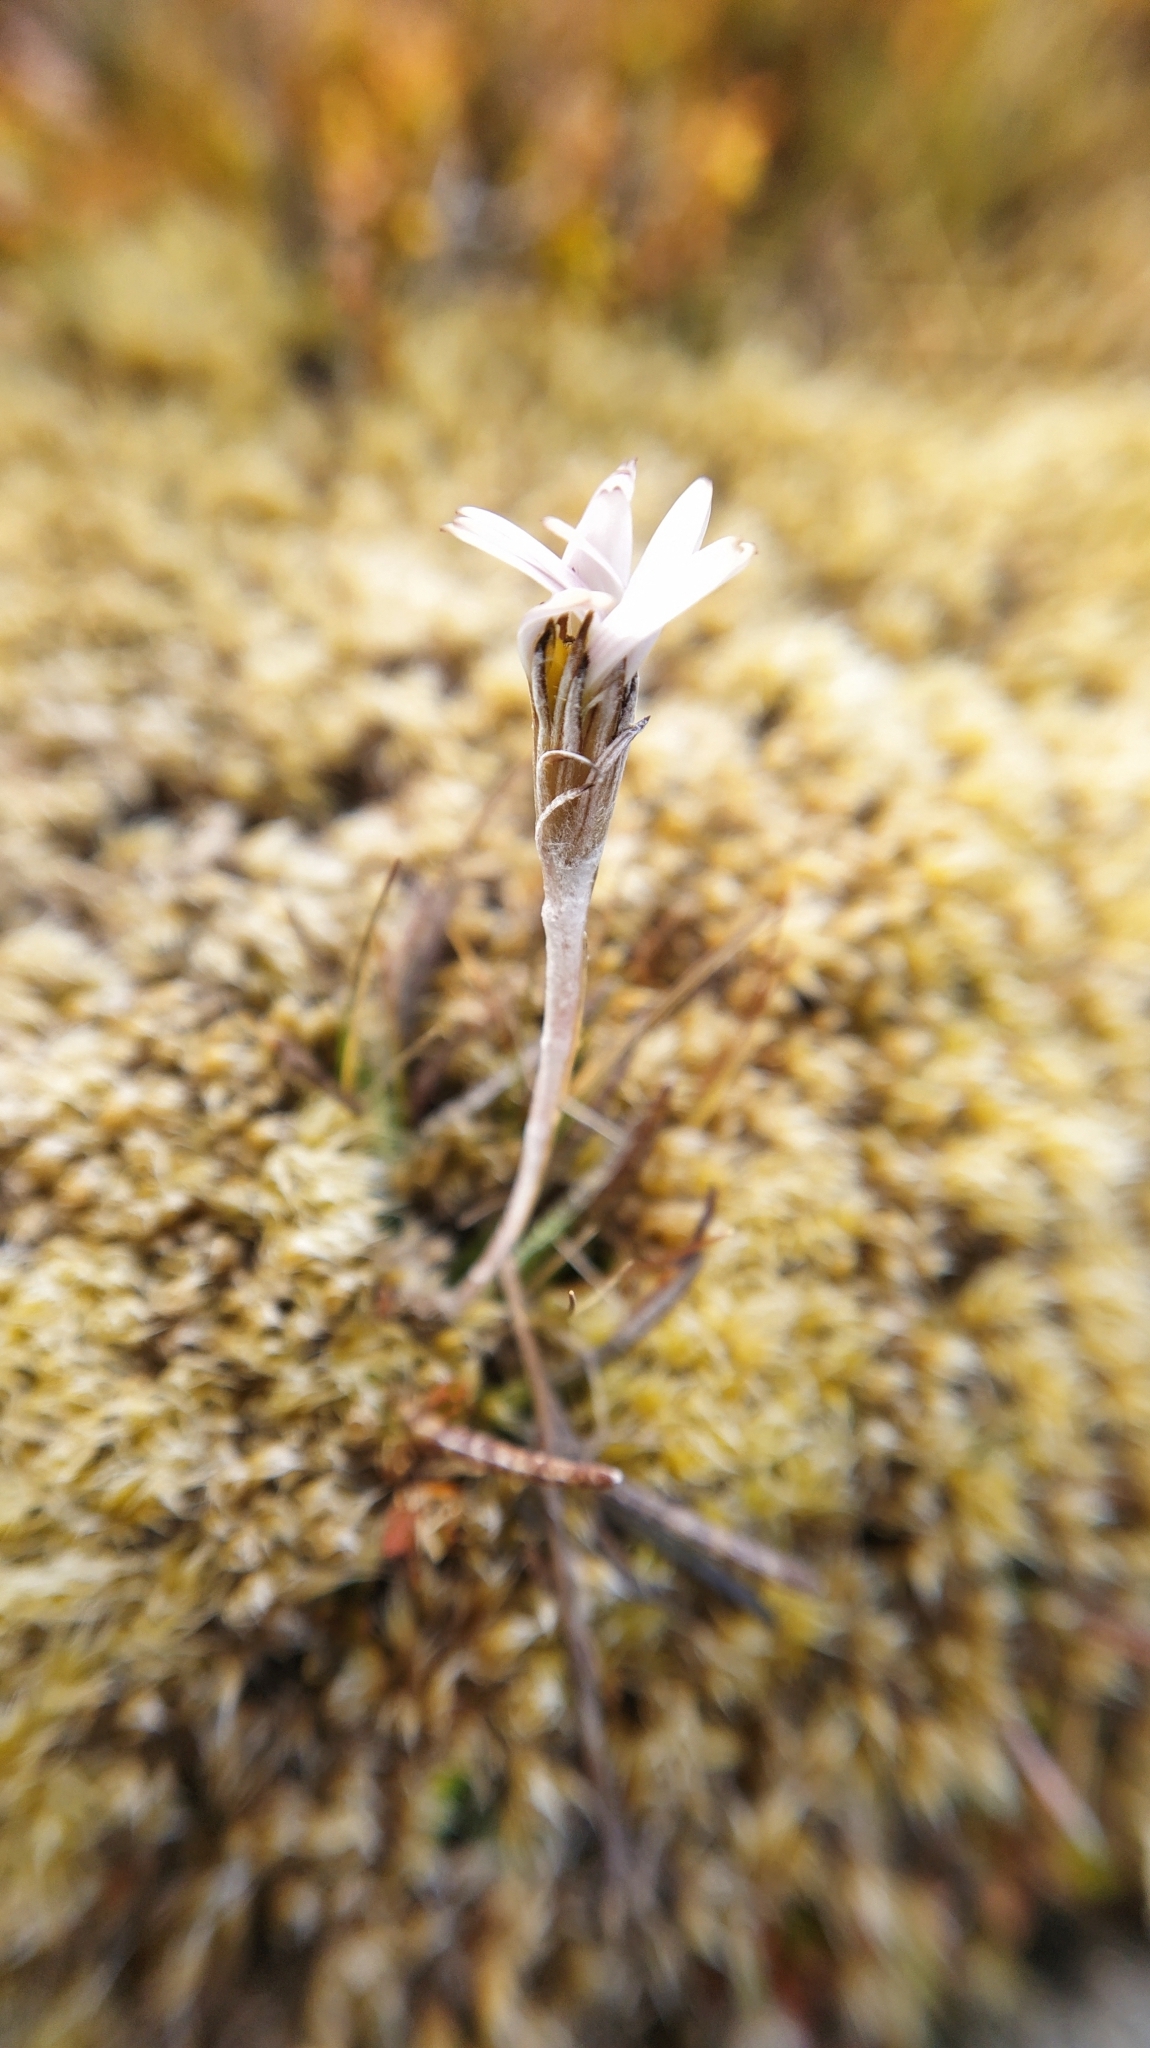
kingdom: Plantae
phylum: Tracheophyta
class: Magnoliopsida
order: Asterales
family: Asteraceae
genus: Celmisia
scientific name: Celmisia gracilenta
